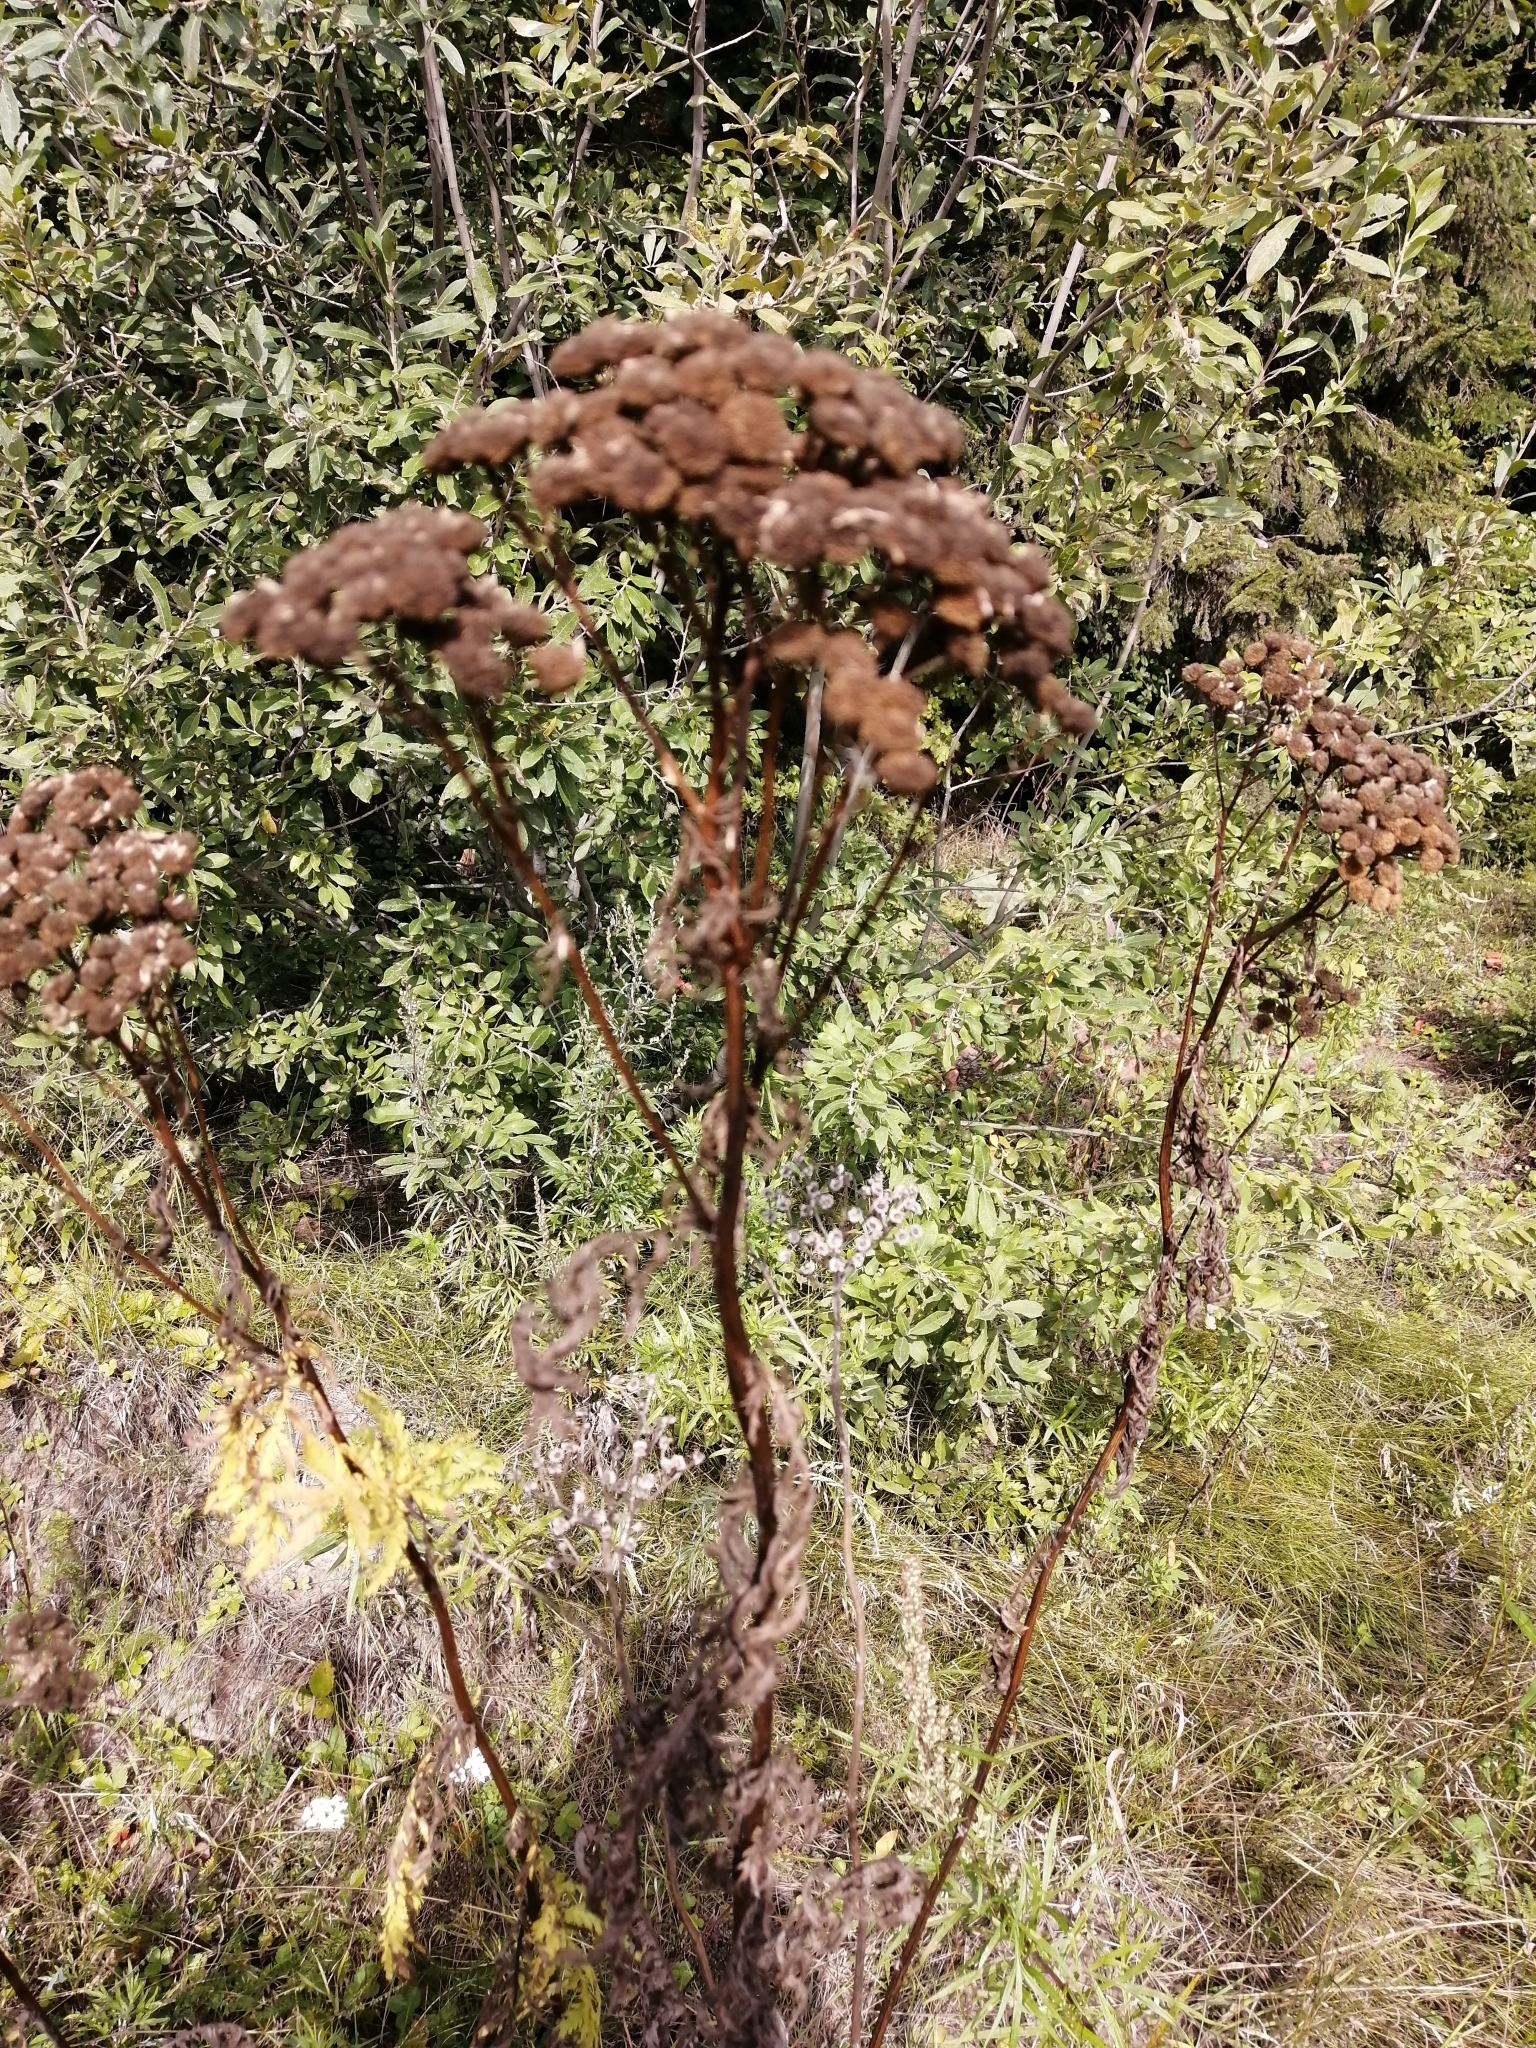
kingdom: Plantae
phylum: Tracheophyta
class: Magnoliopsida
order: Asterales
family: Asteraceae
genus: Tanacetum
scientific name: Tanacetum vulgare
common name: Common tansy
